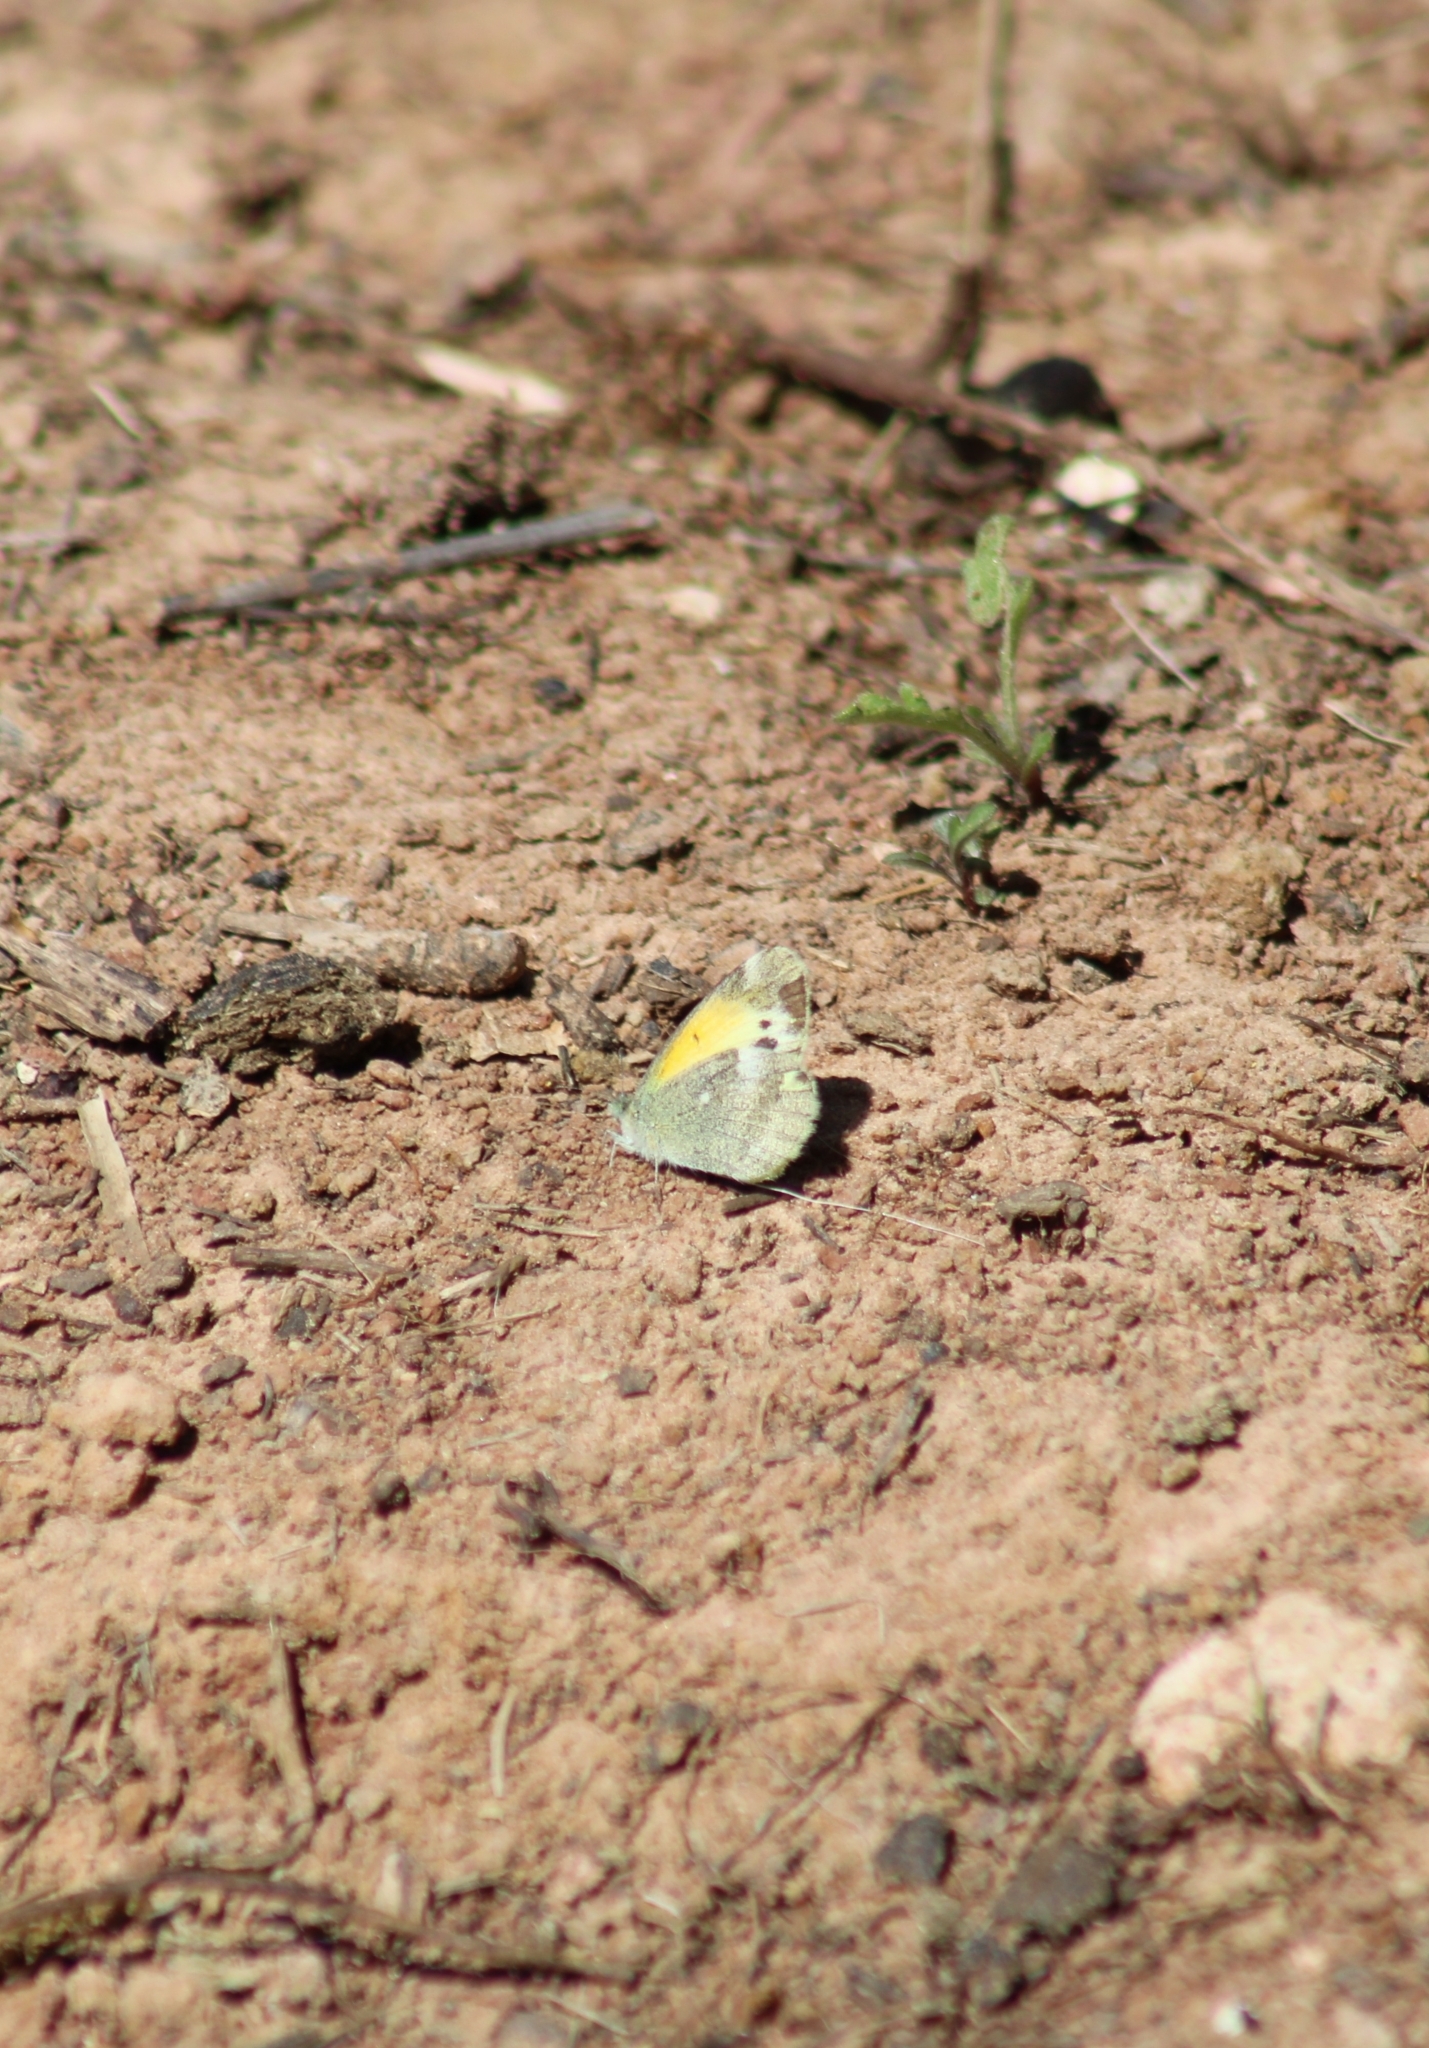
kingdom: Animalia
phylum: Arthropoda
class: Insecta
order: Lepidoptera
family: Pieridae
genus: Nathalis
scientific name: Nathalis iole
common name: Dainty sulphur
